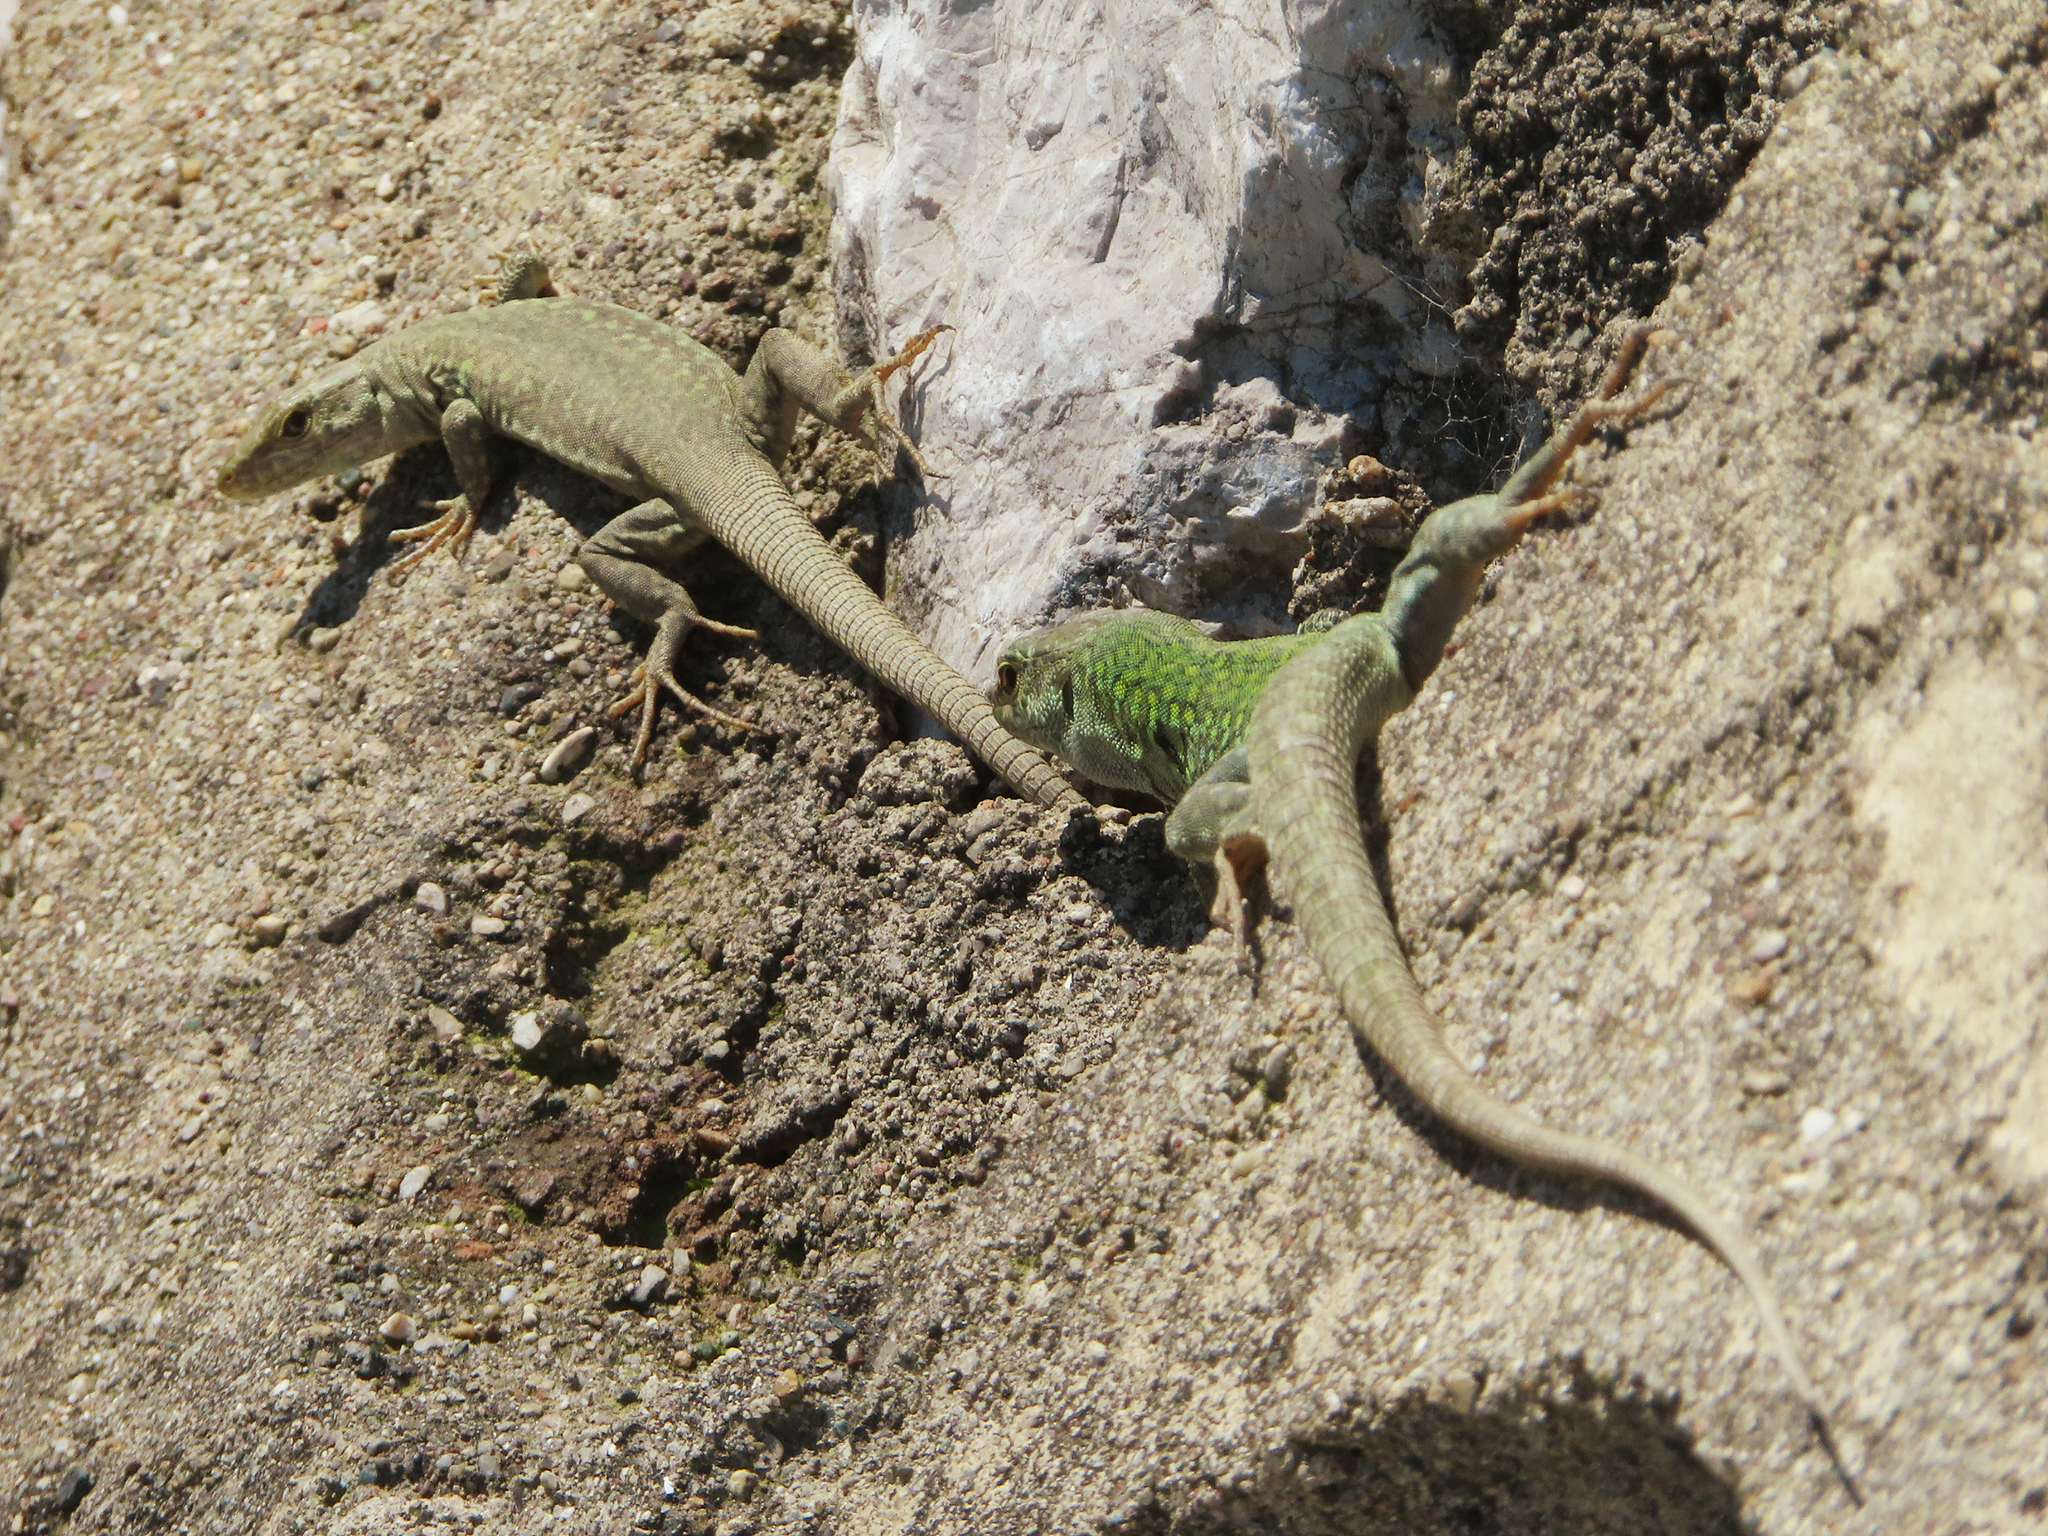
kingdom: Animalia
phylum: Chordata
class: Squamata
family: Lacertidae
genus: Podarcis
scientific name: Podarcis siculus
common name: Italian wall lizard
